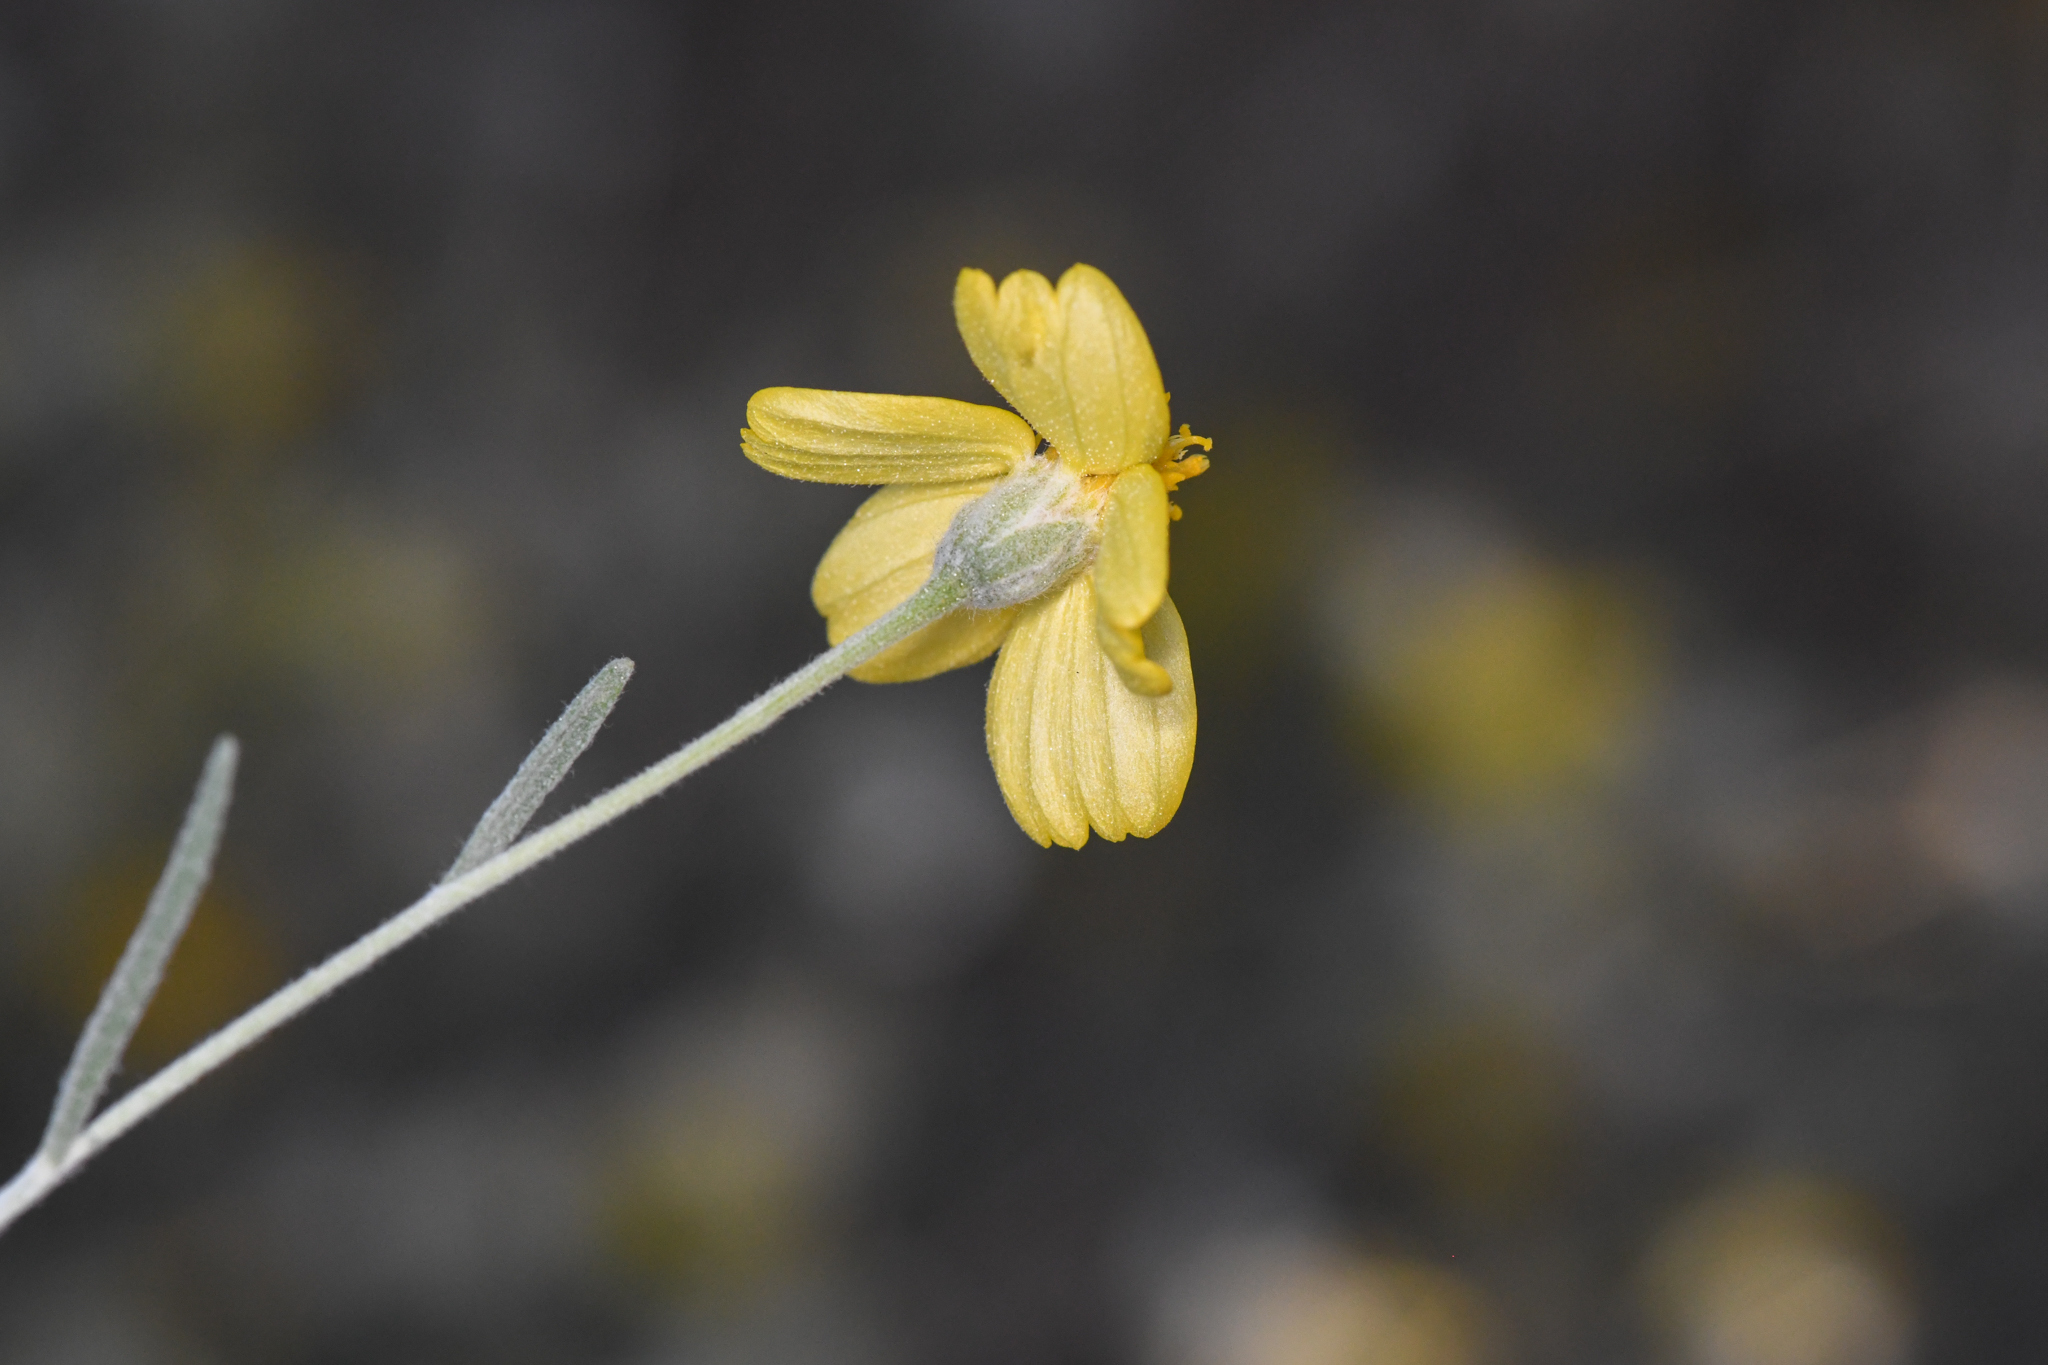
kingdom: Plantae
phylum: Tracheophyta
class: Magnoliopsida
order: Asterales
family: Asteraceae
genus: Psilostrophe
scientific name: Psilostrophe cooperi
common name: White-stem paper-flower
